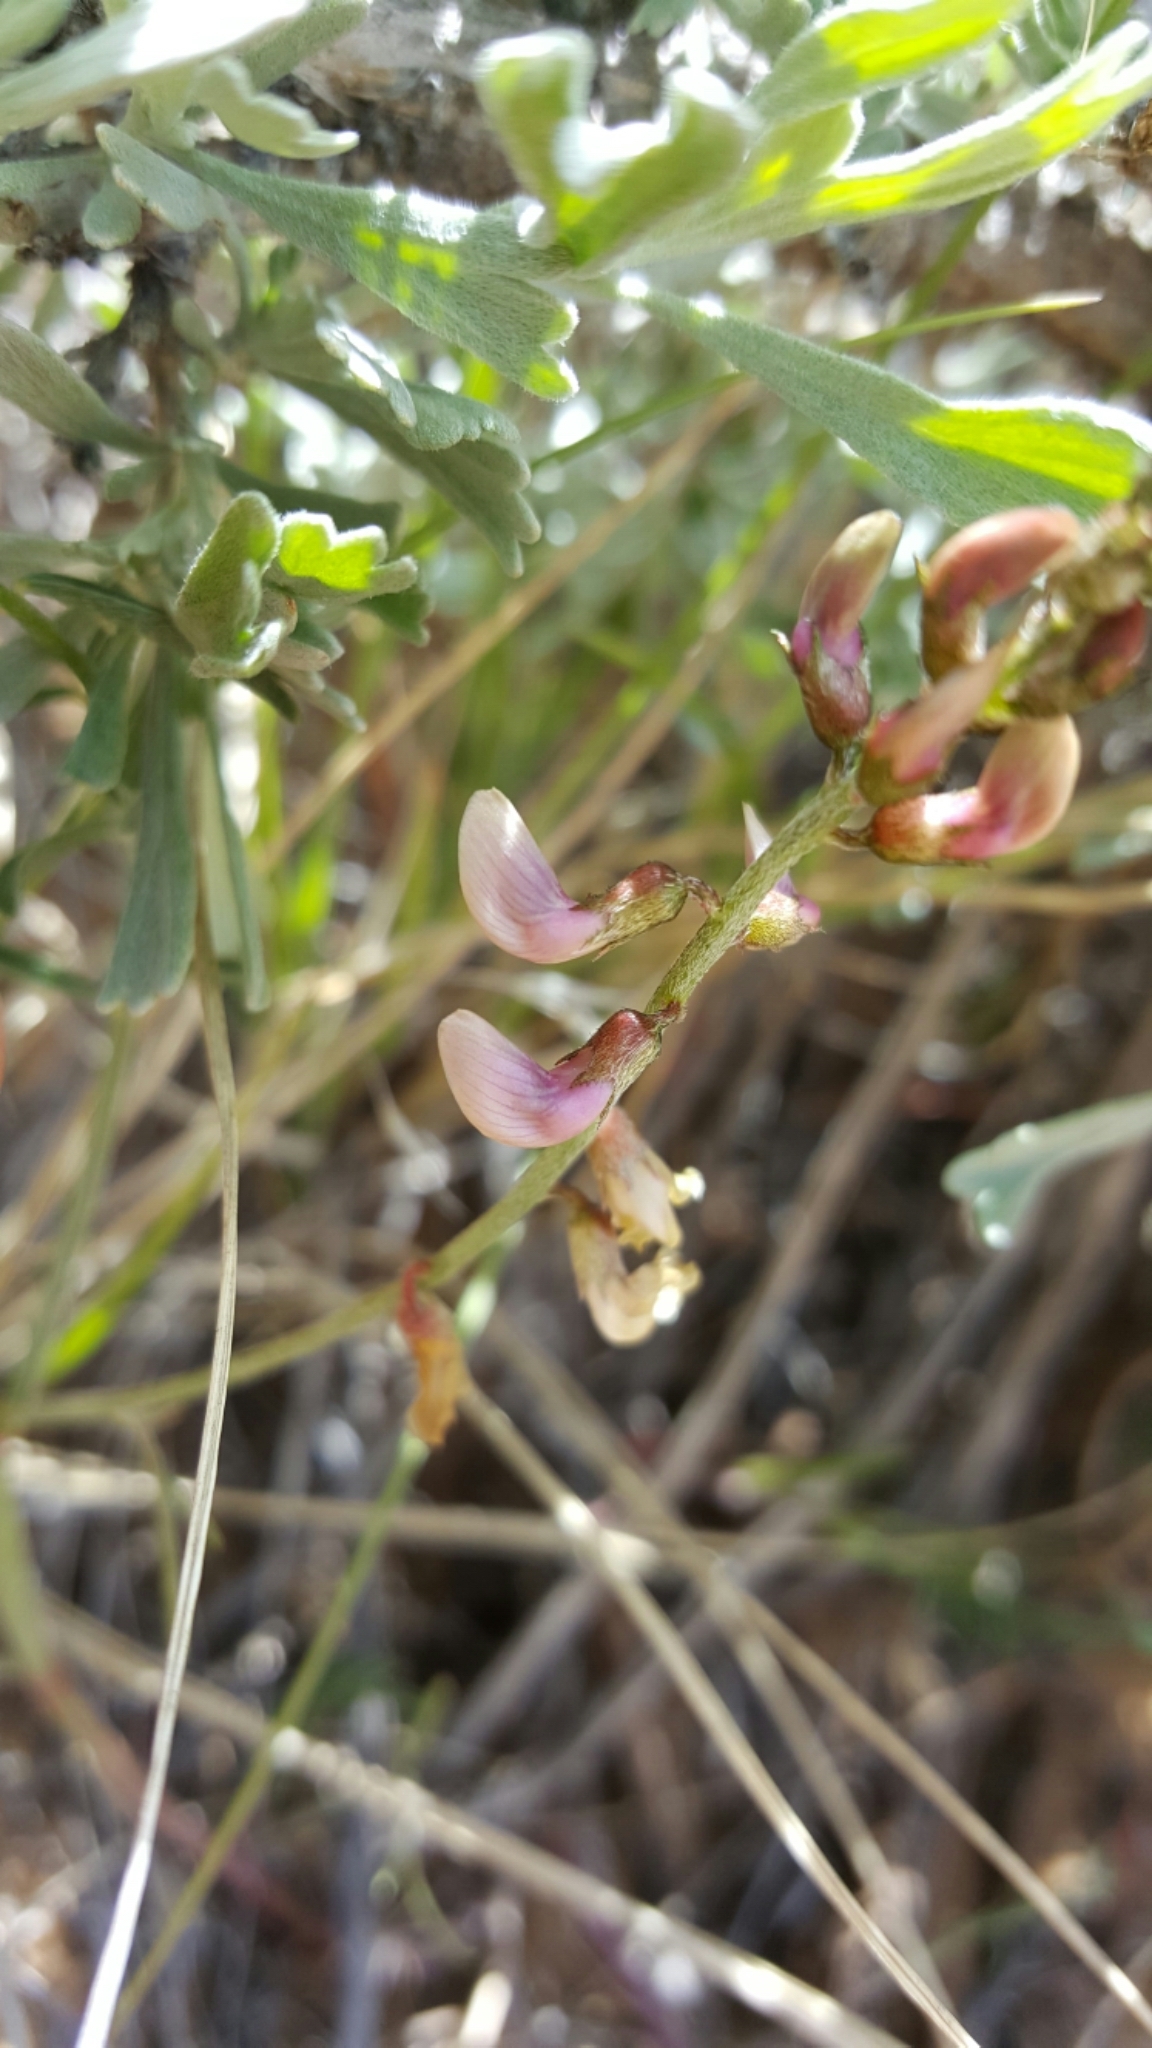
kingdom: Plantae
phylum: Tracheophyta
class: Magnoliopsida
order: Fabales
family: Fabaceae
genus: Astragalus
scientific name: Astragalus ceramicus
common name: Painted milk-vetch
